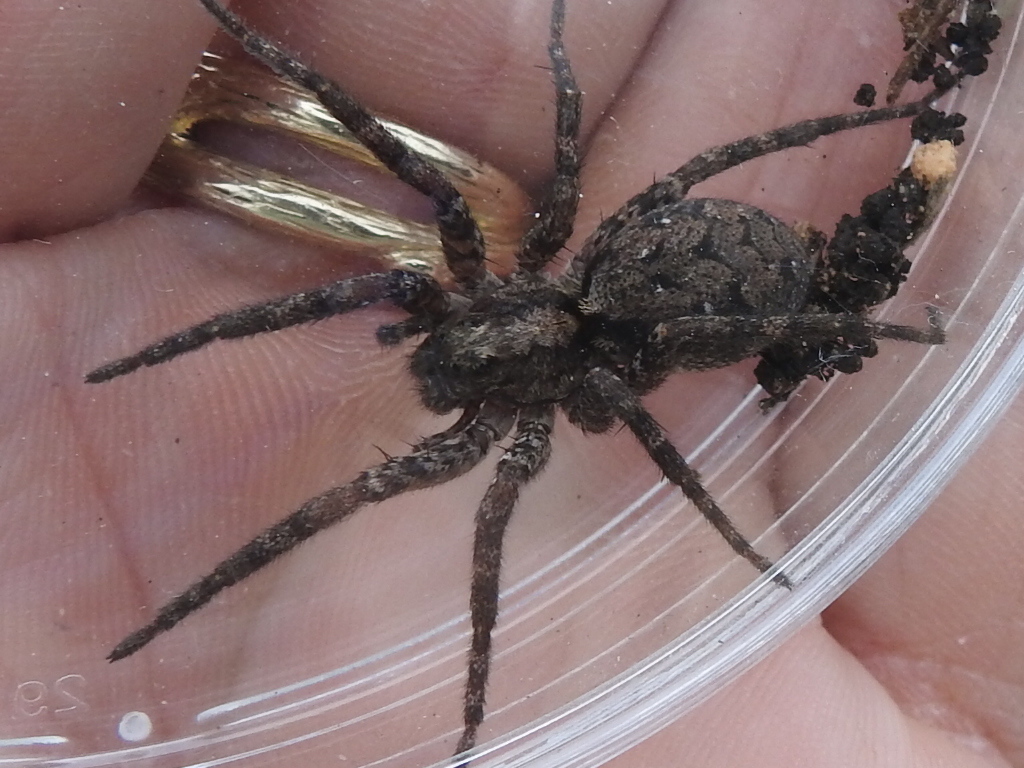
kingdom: Animalia
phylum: Arthropoda
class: Arachnida
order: Araneae
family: Lycosidae
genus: Gladicosa
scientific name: Gladicosa pulchra
